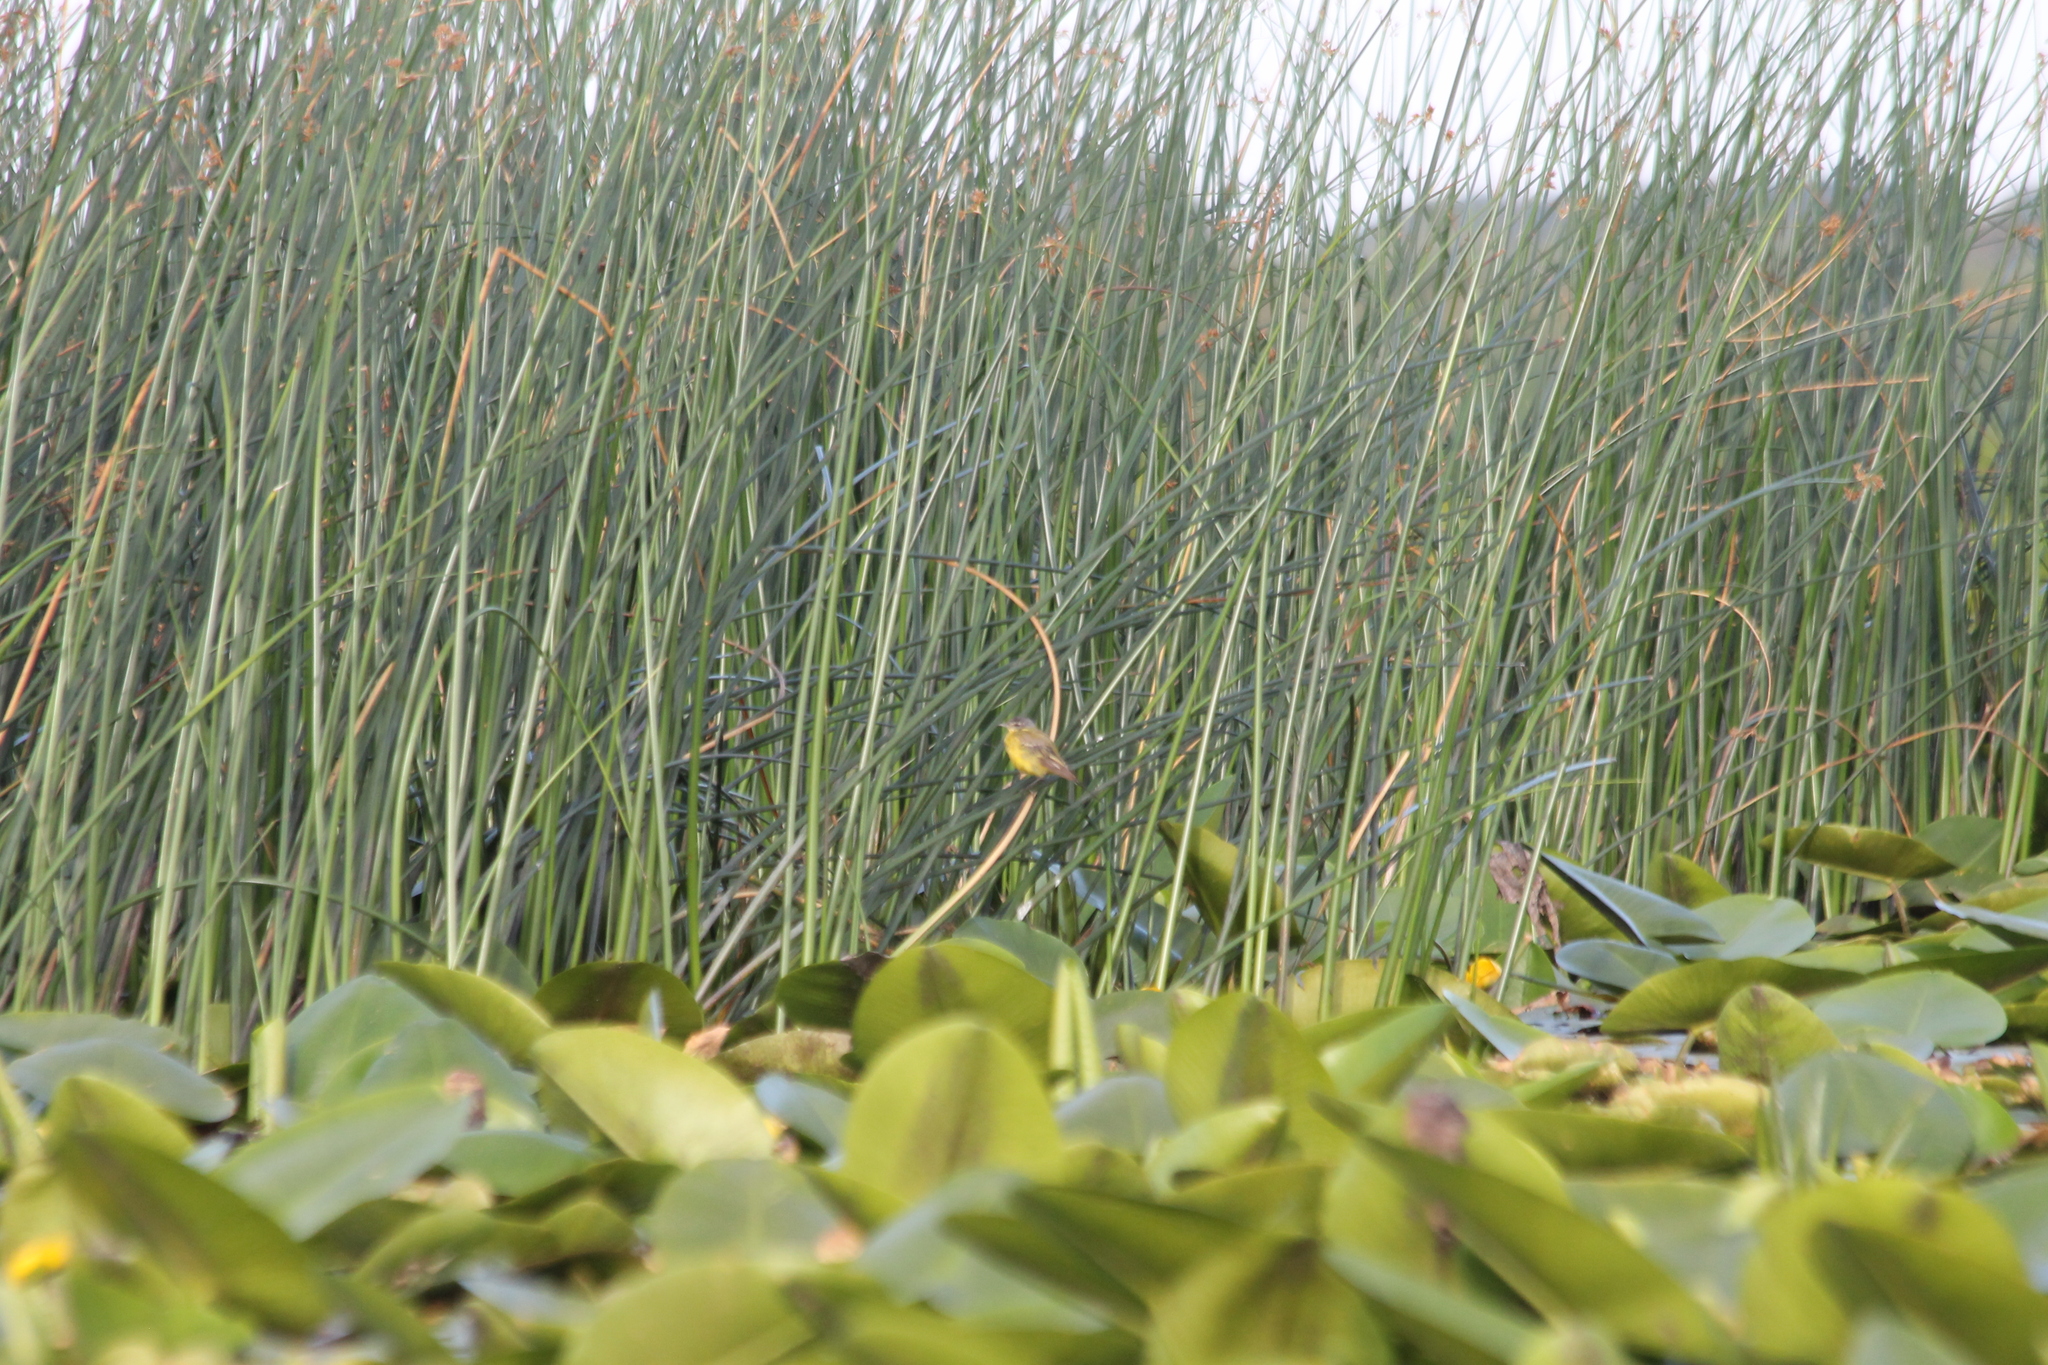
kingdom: Animalia
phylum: Chordata
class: Aves
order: Passeriformes
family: Motacillidae
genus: Motacilla
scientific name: Motacilla flava
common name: Western yellow wagtail
